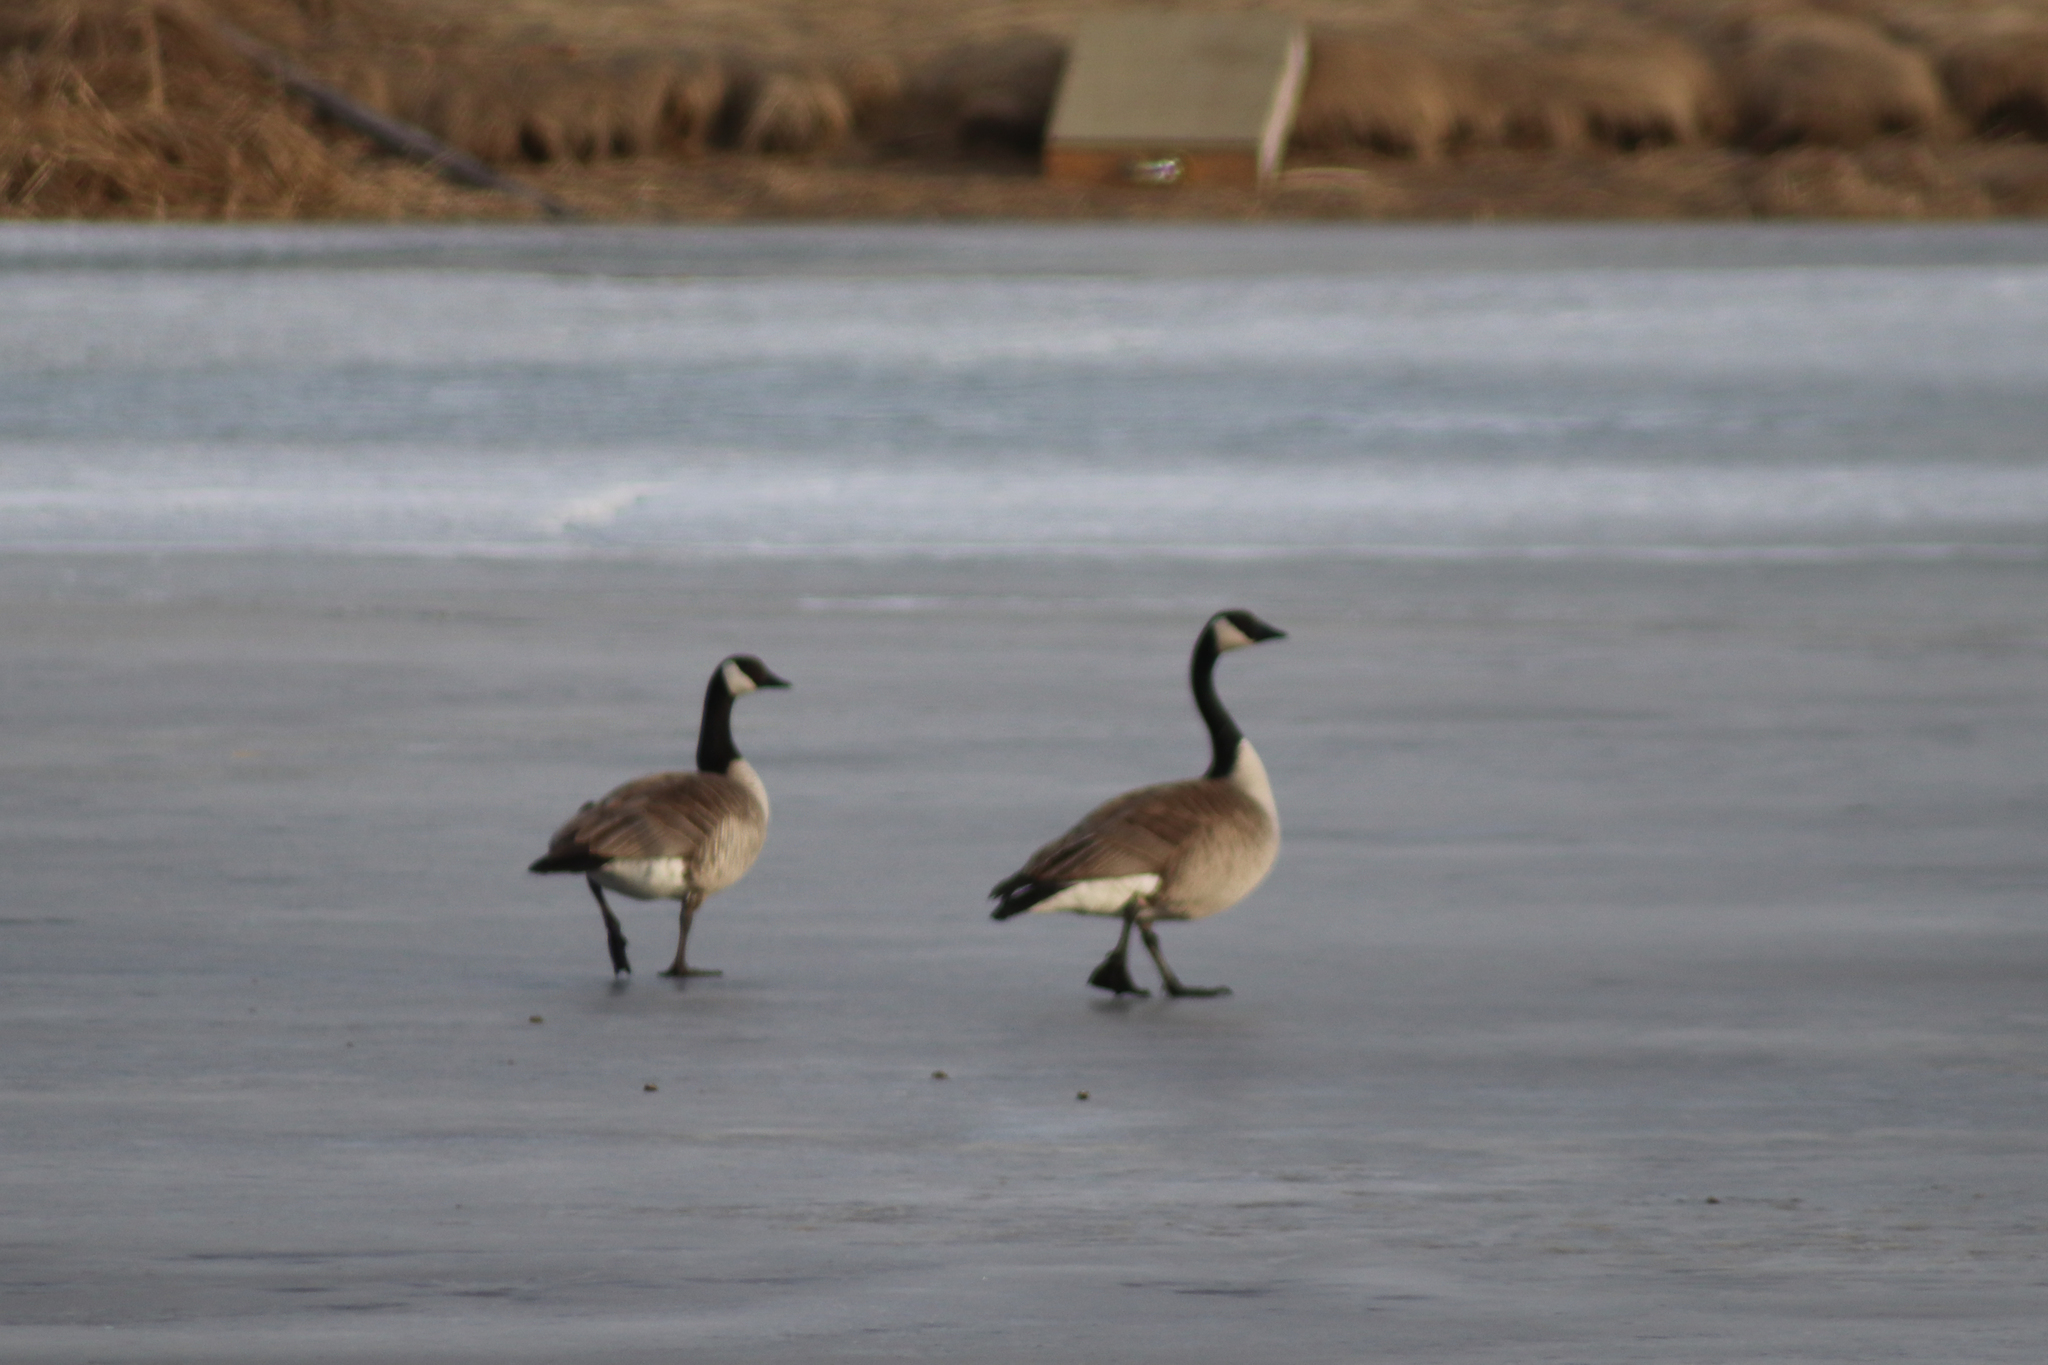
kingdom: Animalia
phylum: Chordata
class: Aves
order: Anseriformes
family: Anatidae
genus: Branta
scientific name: Branta canadensis
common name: Canada goose
